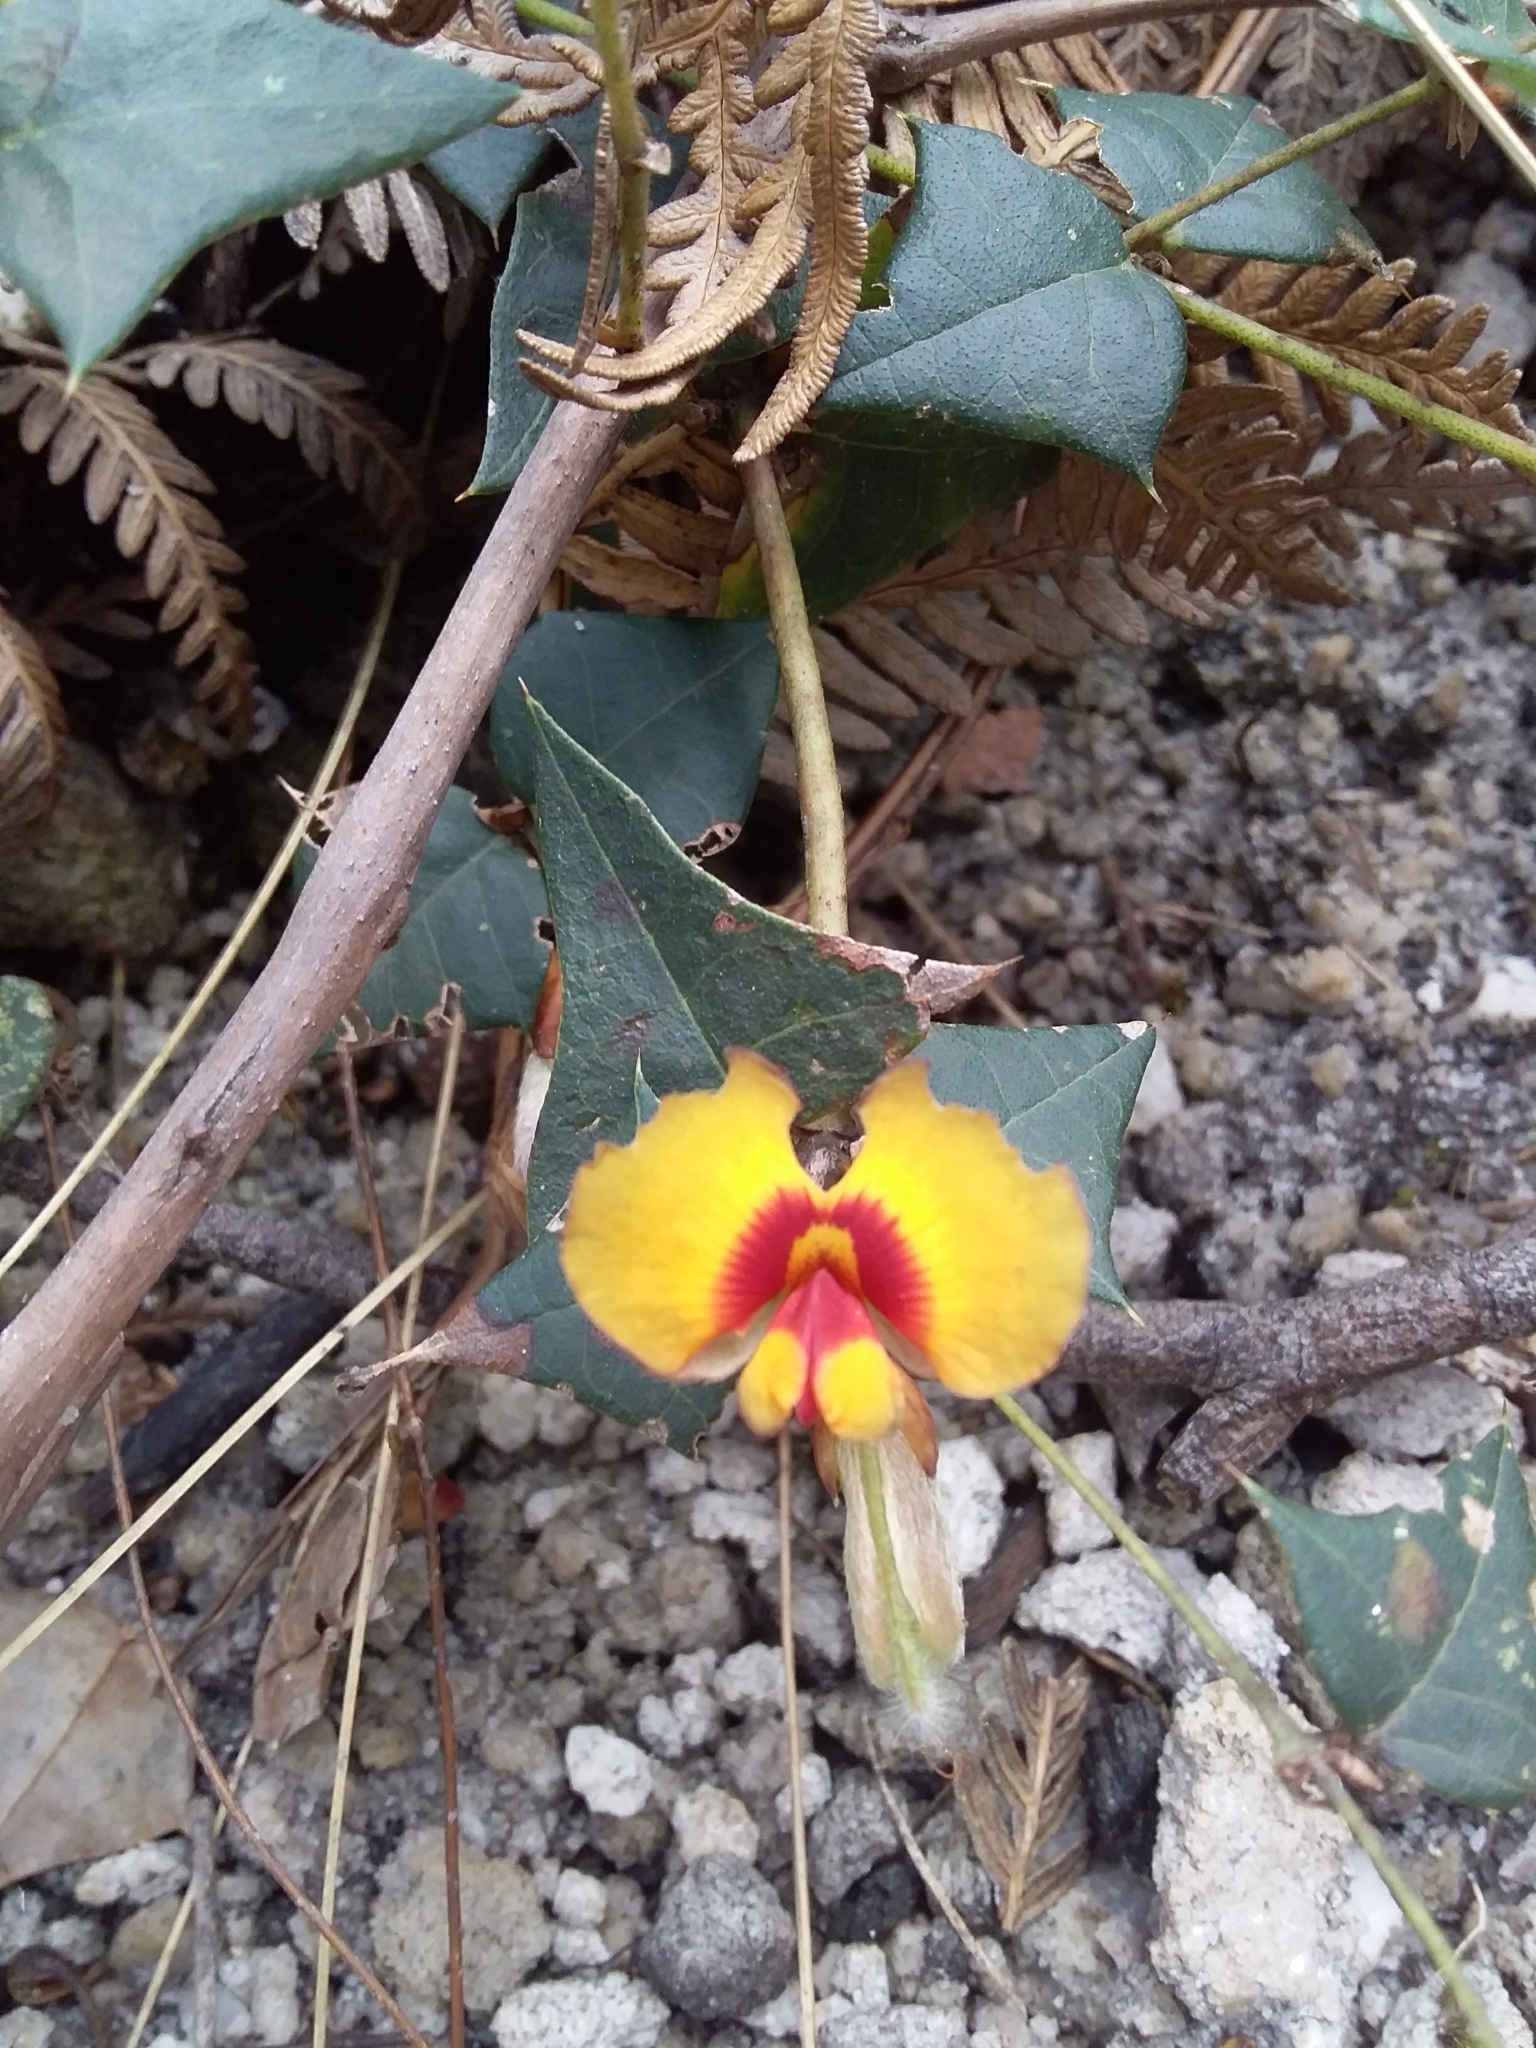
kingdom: Plantae
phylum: Tracheophyta
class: Magnoliopsida
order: Fabales
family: Fabaceae
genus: Platylobium
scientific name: Platylobium obtusangulum
